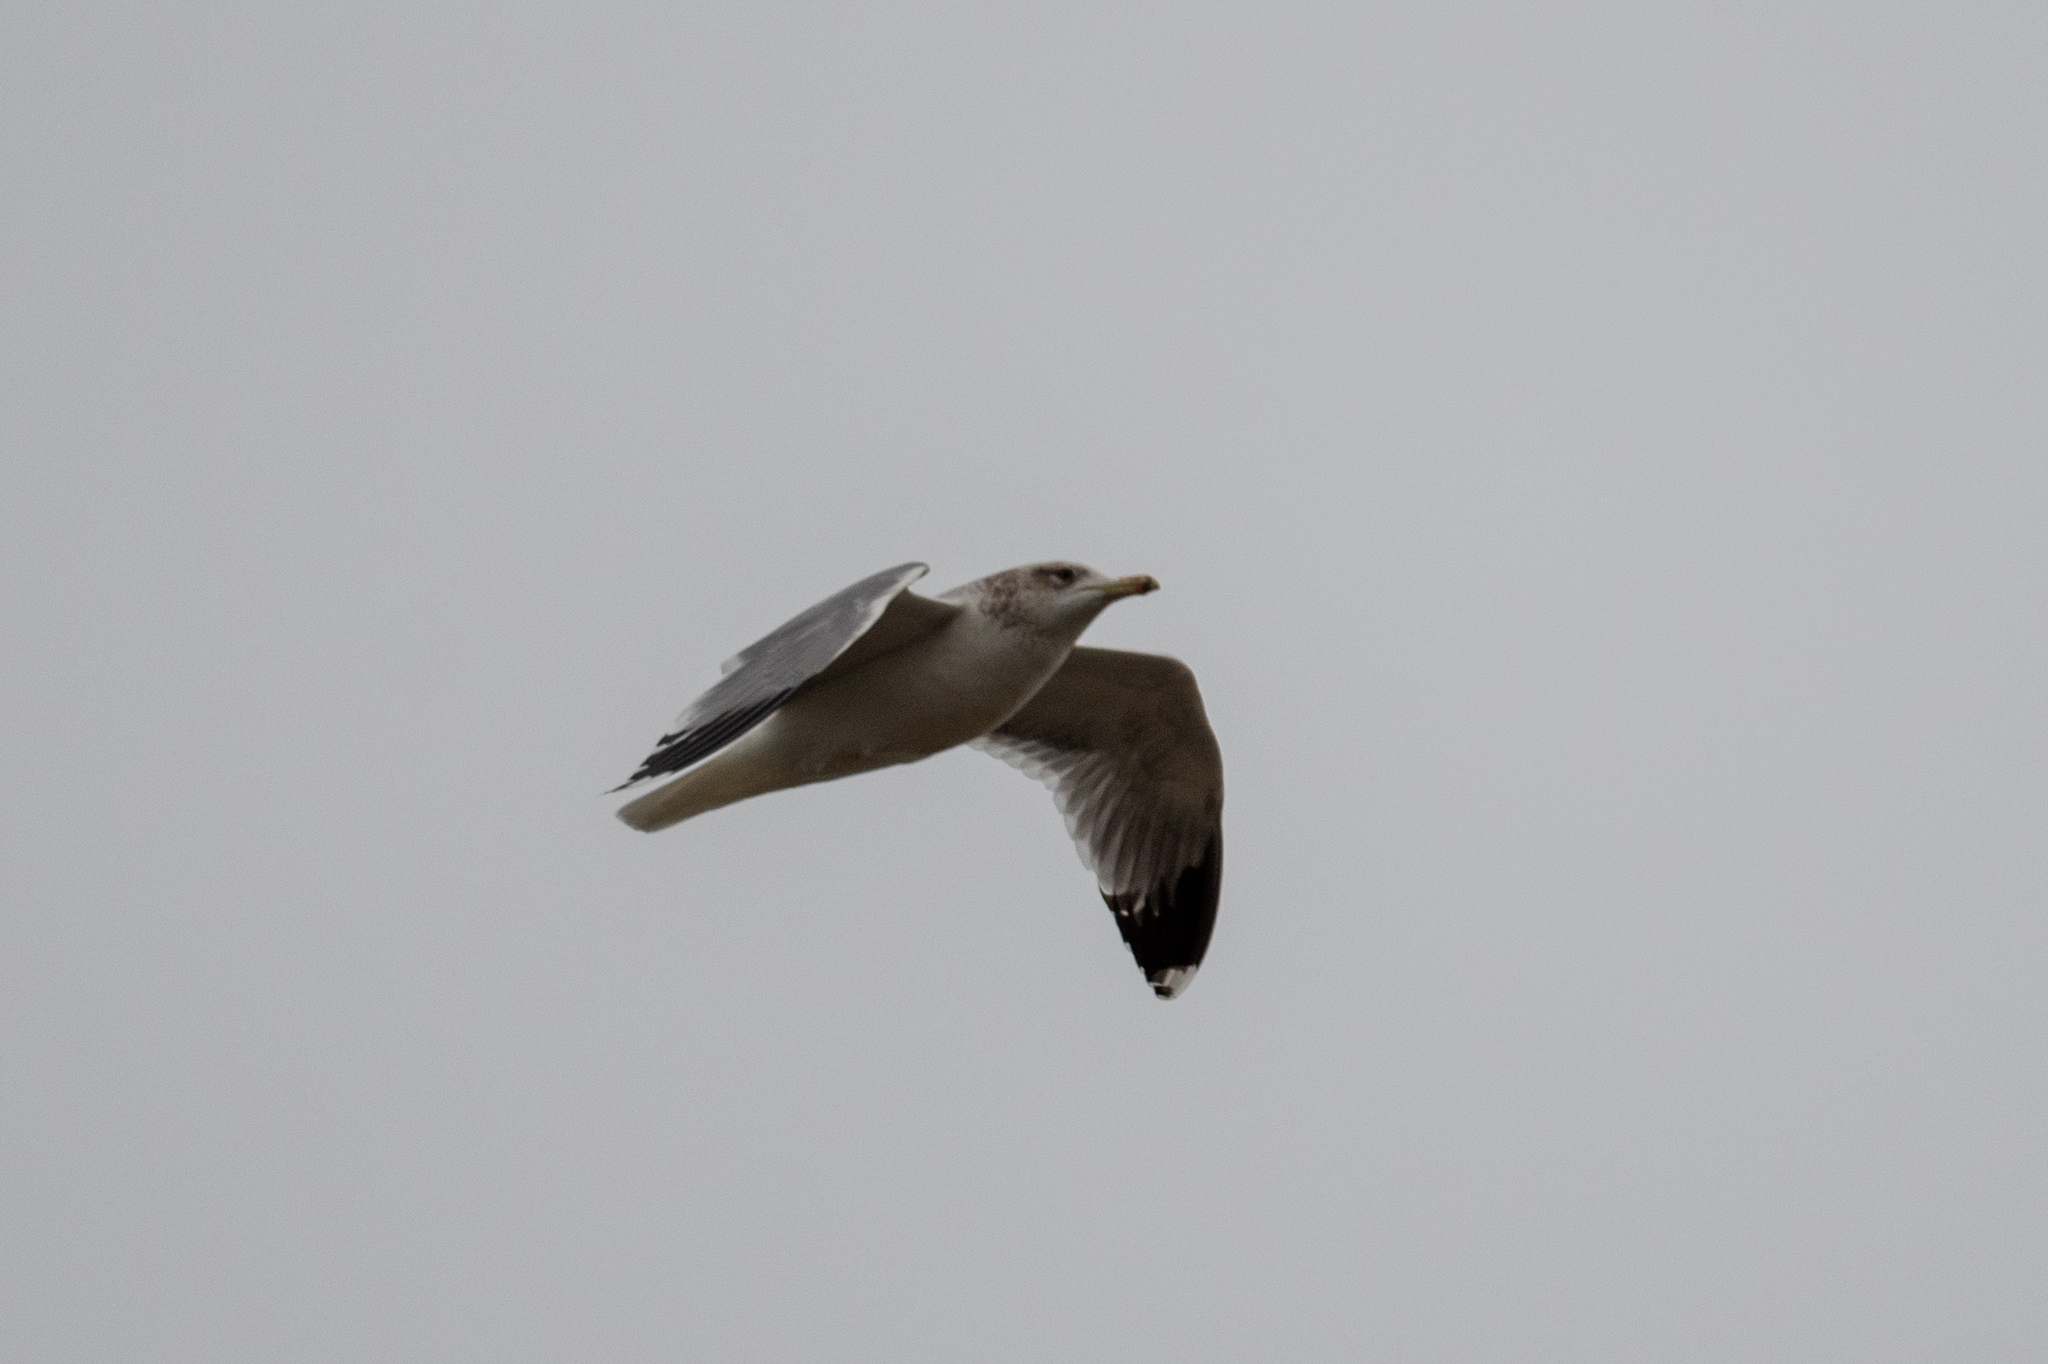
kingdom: Animalia
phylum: Chordata
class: Aves
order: Charadriiformes
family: Laridae
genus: Larus
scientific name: Larus californicus
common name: California gull
